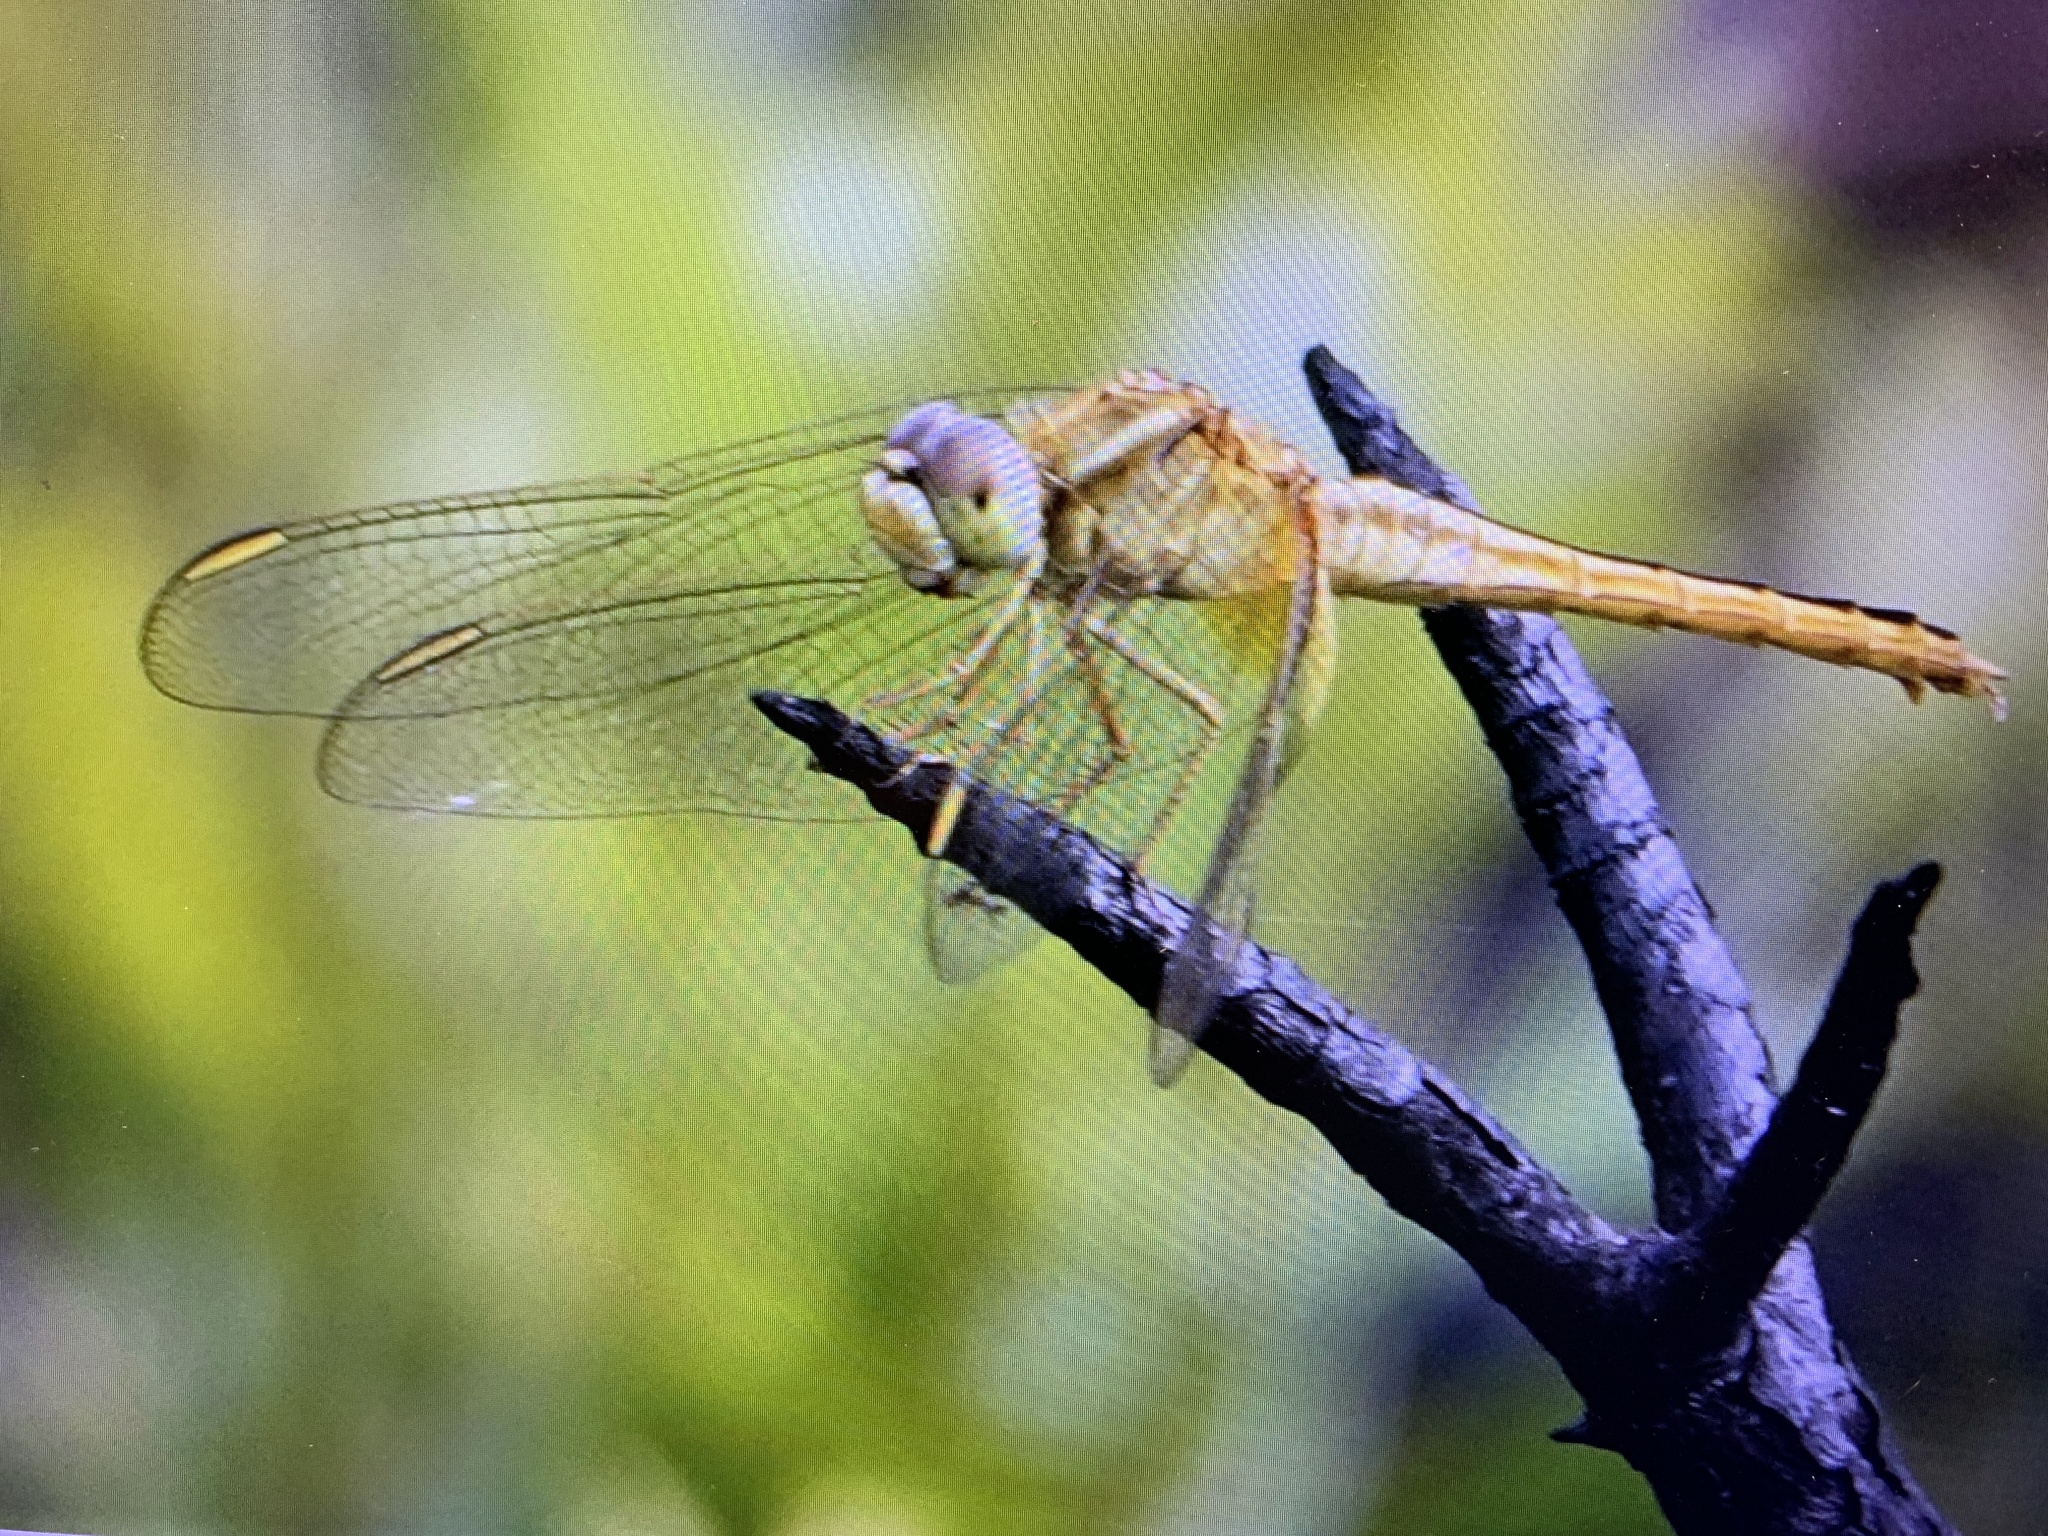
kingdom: Animalia
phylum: Arthropoda
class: Insecta
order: Odonata
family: Libellulidae
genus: Crocothemis
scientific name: Crocothemis servilia
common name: Scarlet skimmer
